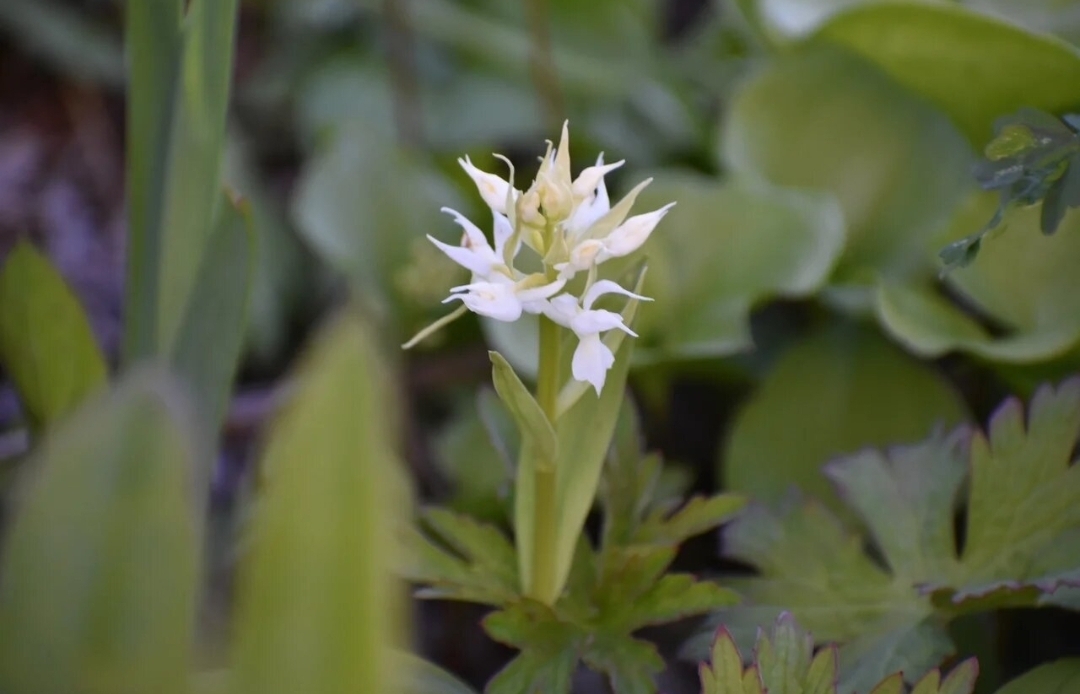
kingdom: Plantae
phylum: Tracheophyta
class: Liliopsida
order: Asparagales
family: Orchidaceae
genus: Dactylorhiza
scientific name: Dactylorhiza aristata
